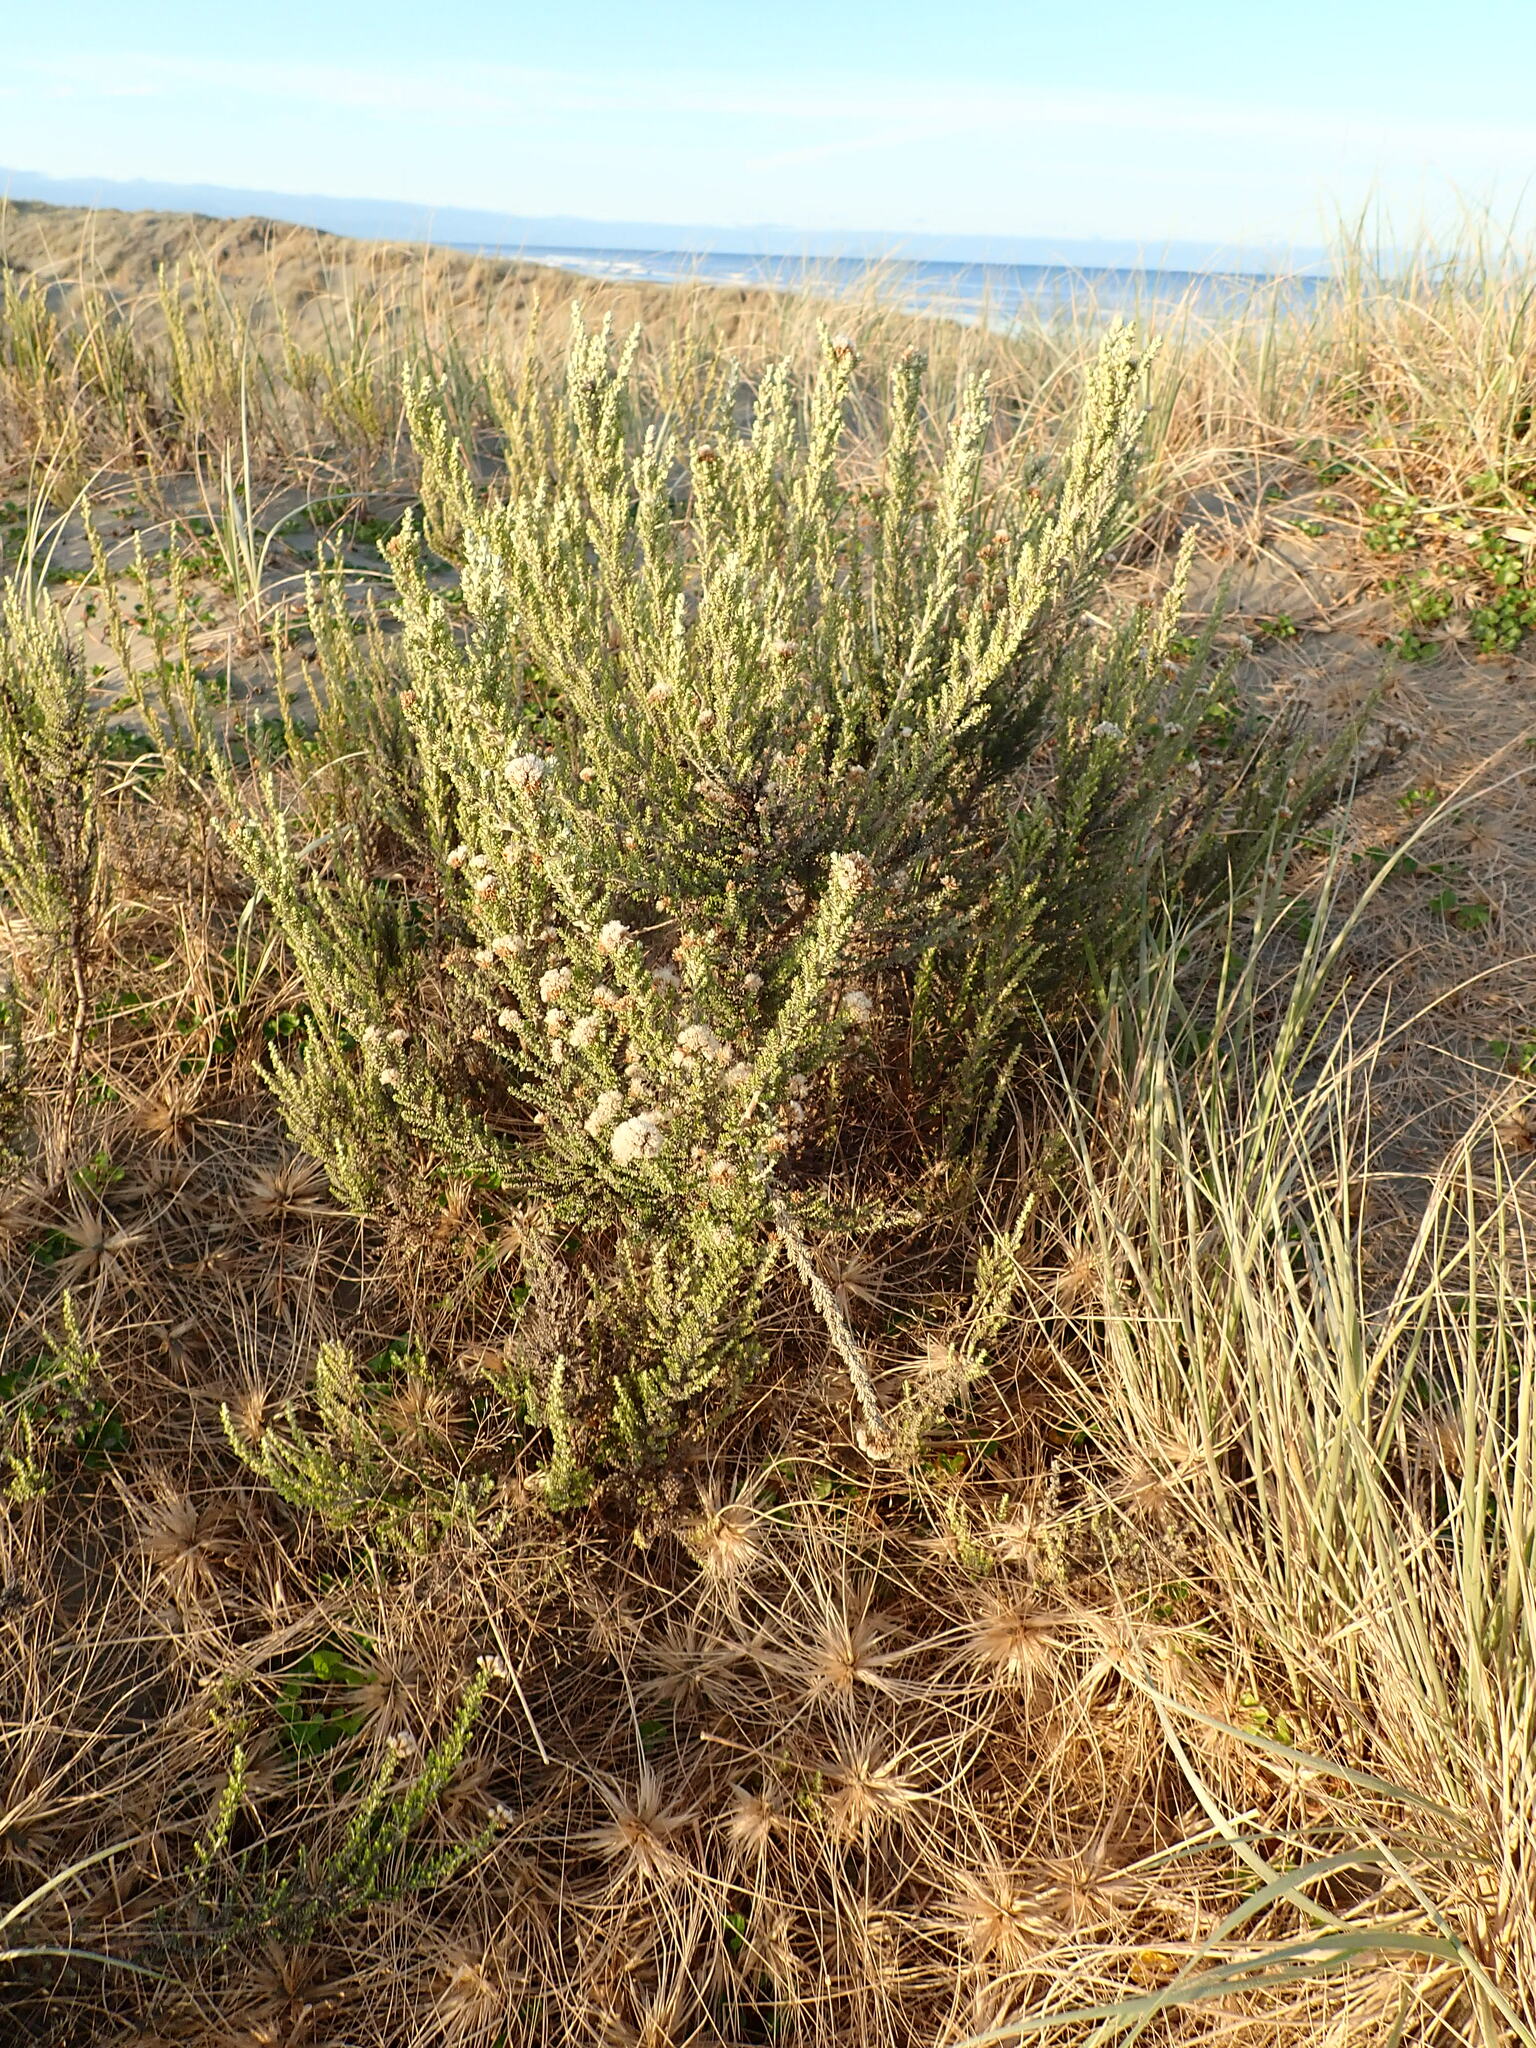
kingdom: Plantae
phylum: Tracheophyta
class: Magnoliopsida
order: Asterales
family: Asteraceae
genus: Ozothamnus
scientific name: Ozothamnus leptophyllus
